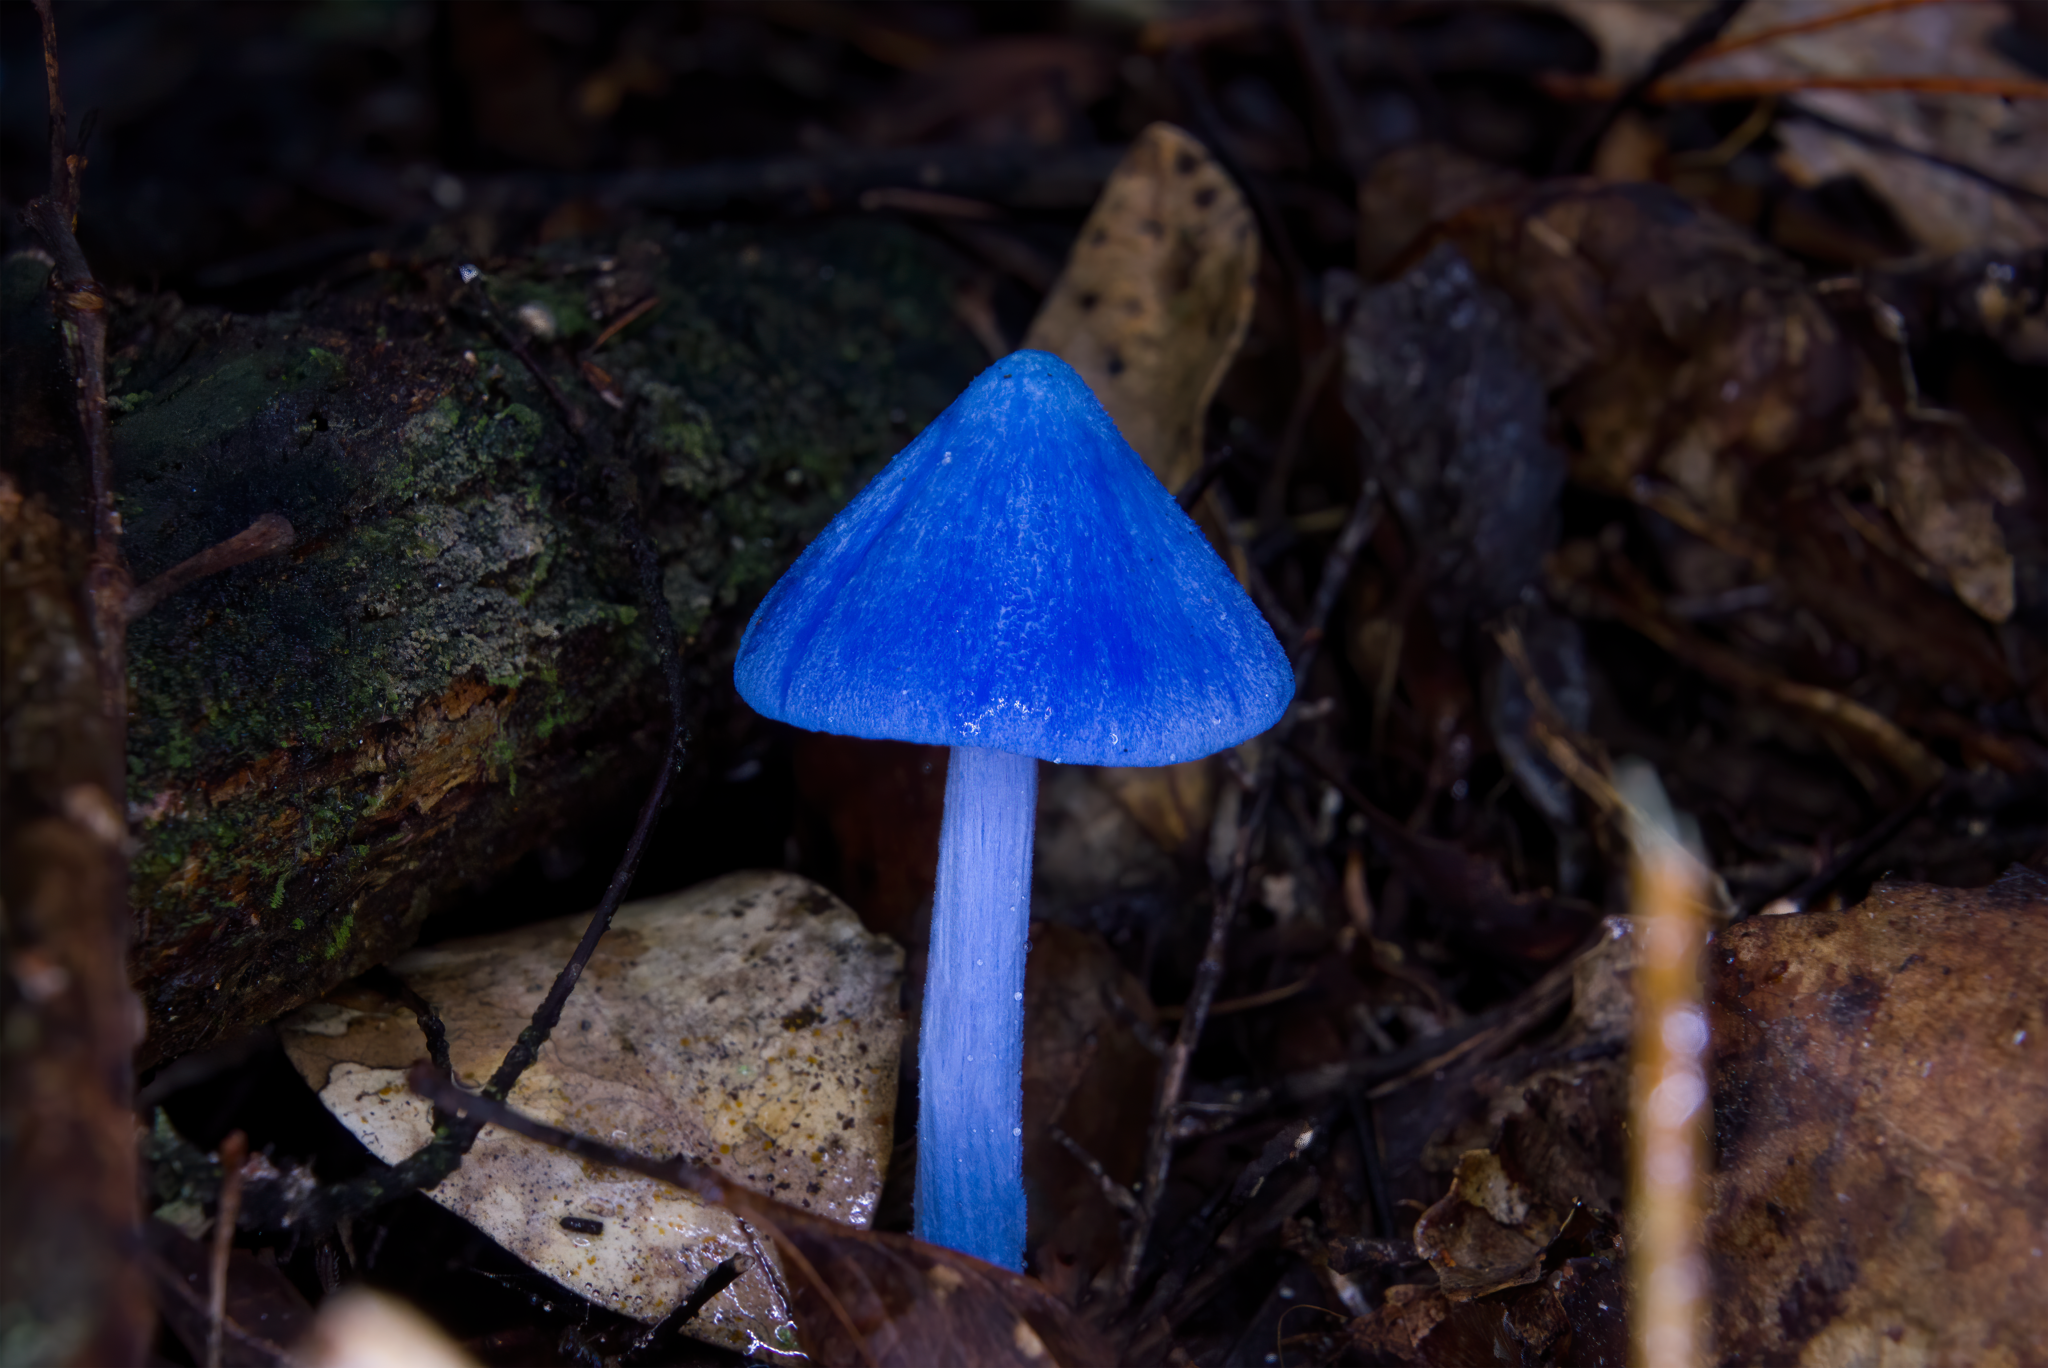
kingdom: Fungi
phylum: Basidiomycota
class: Agaricomycetes
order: Agaricales
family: Entolomataceae
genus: Entoloma
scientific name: Entoloma hochstetteri
